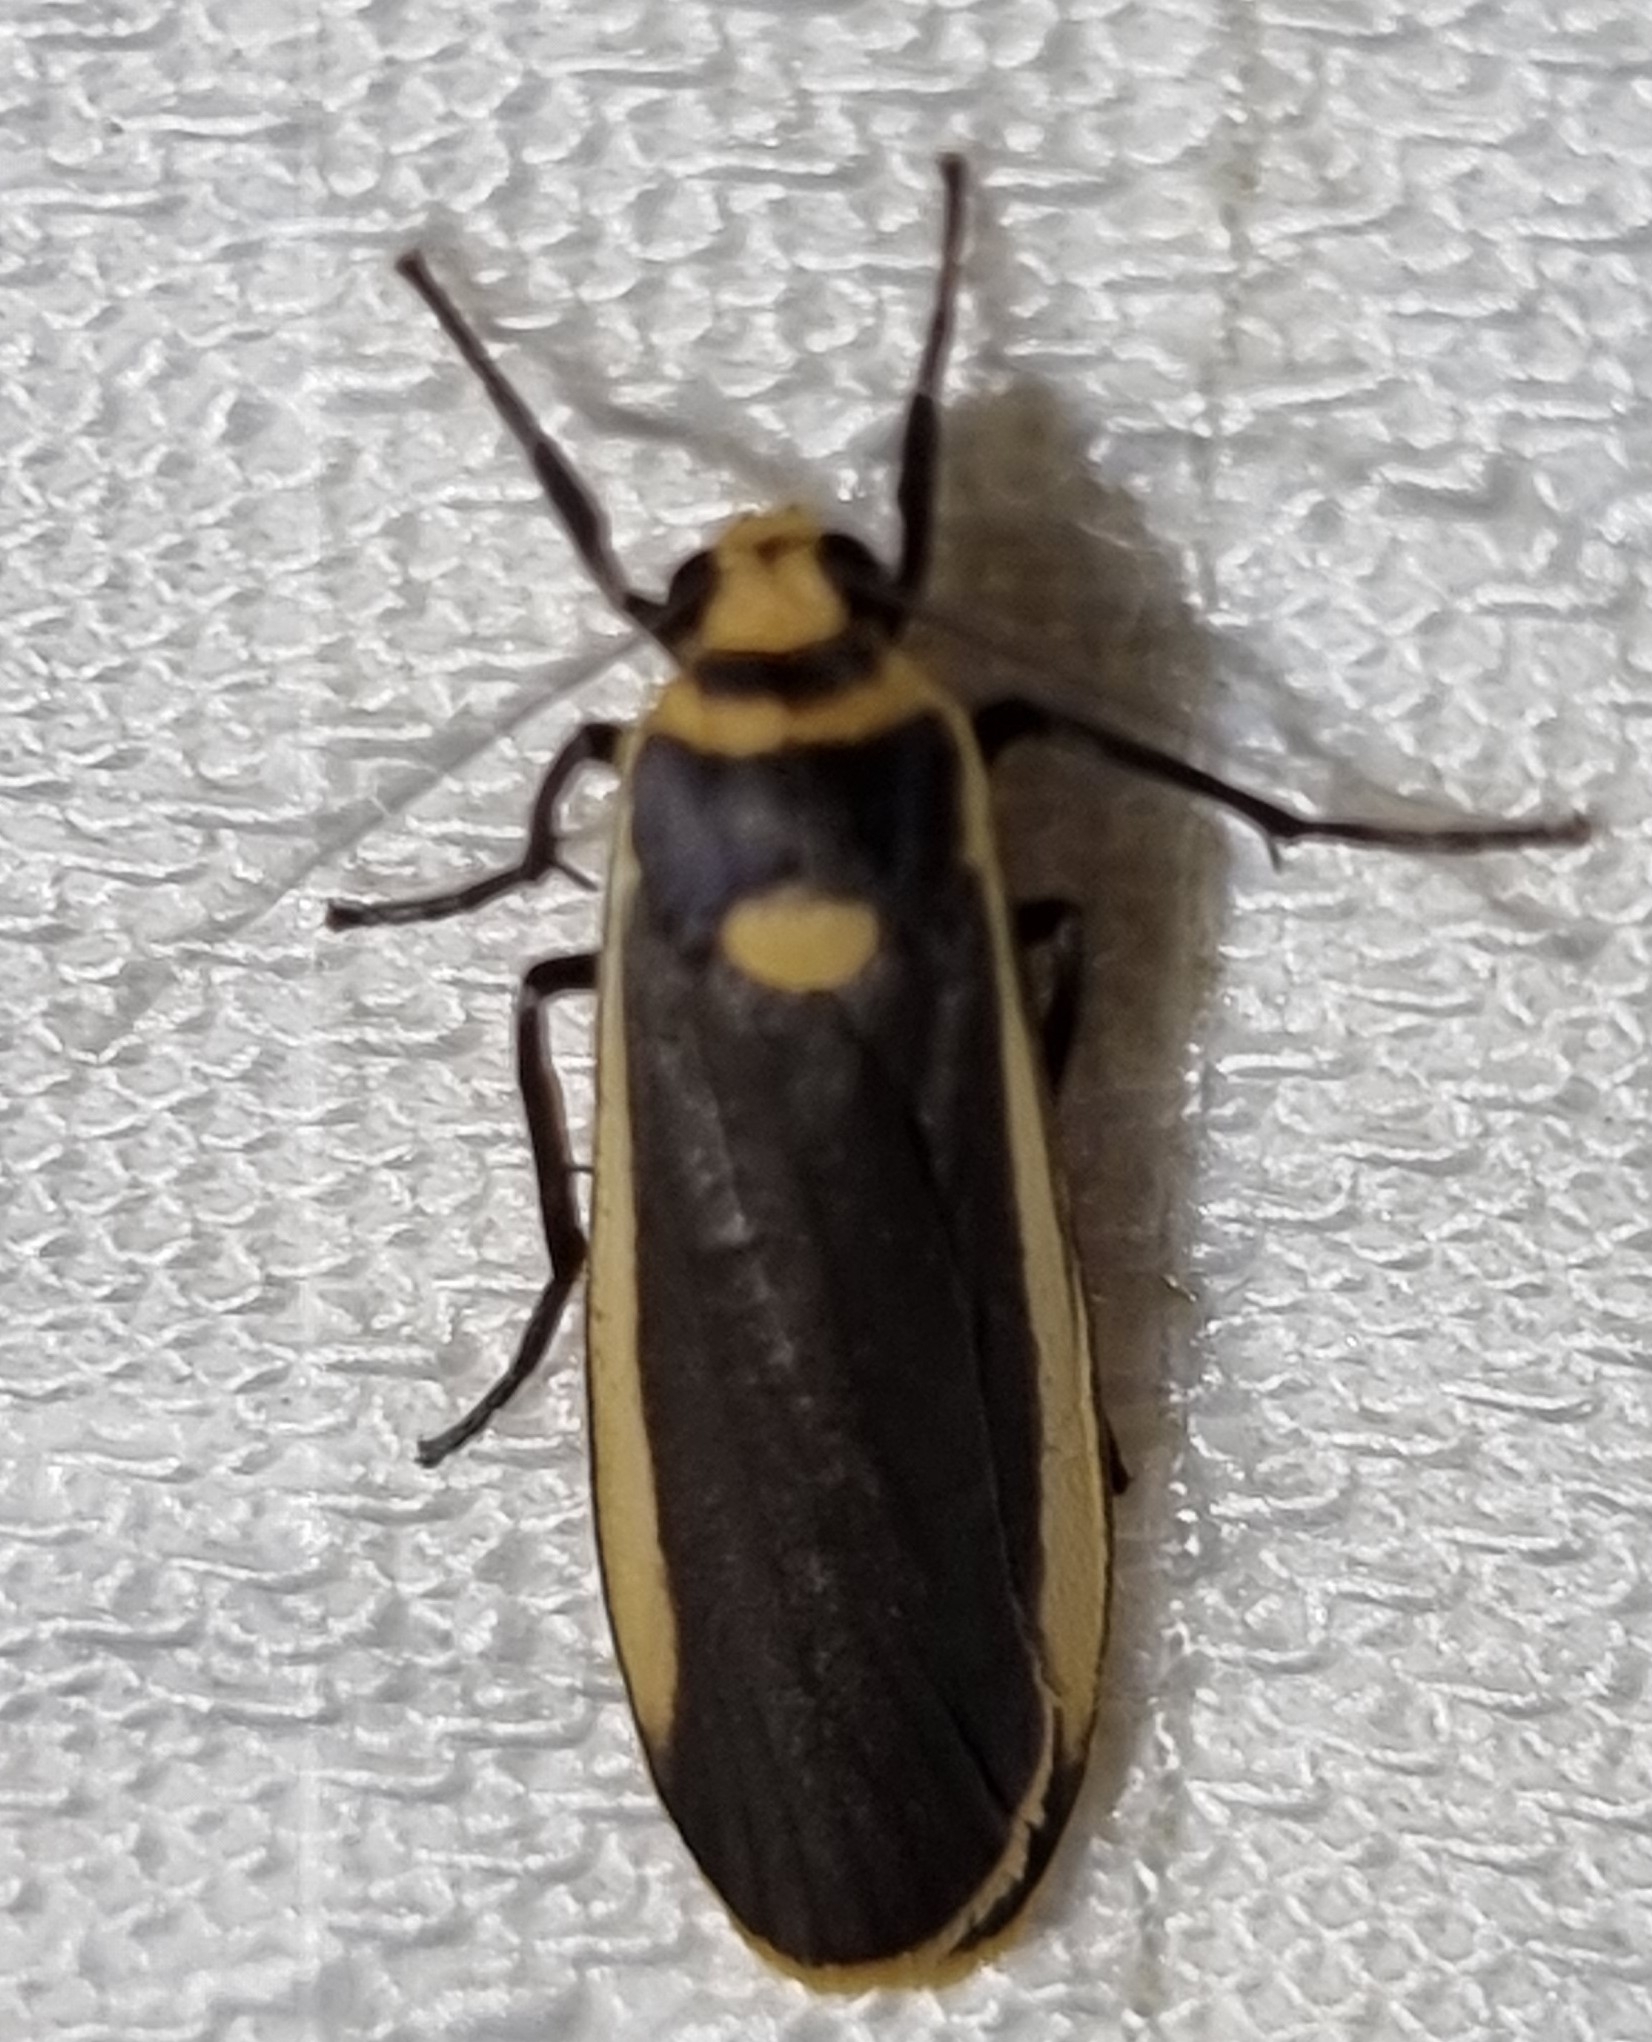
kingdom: Animalia
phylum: Arthropoda
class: Insecta
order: Lepidoptera
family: Erebidae
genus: Brunia
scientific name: Brunia replana
